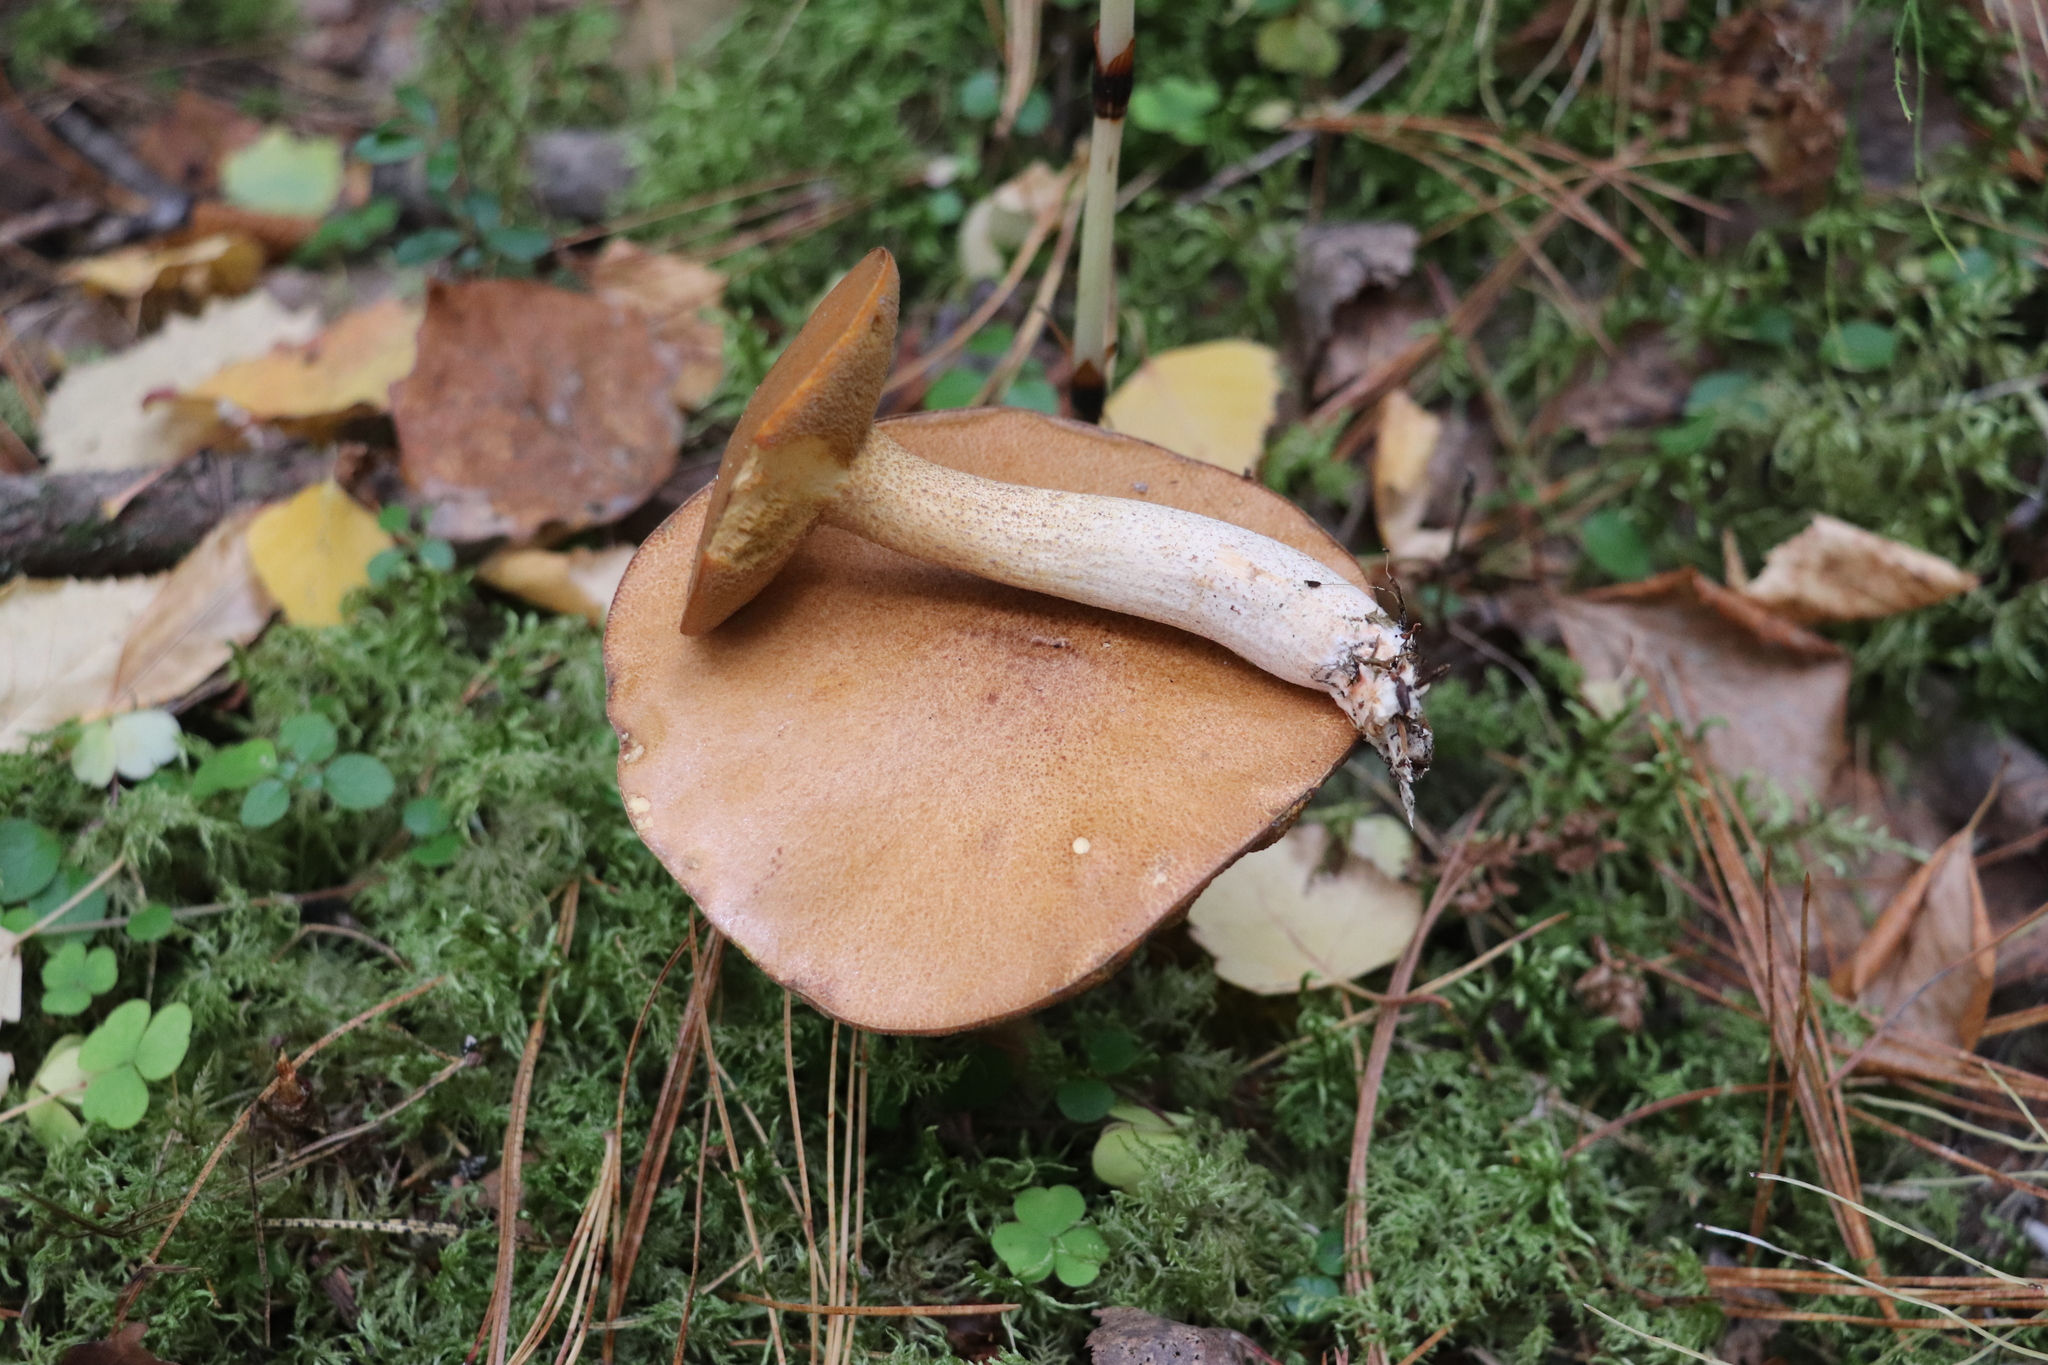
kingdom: Fungi
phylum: Basidiomycota
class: Agaricomycetes
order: Boletales
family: Suillaceae
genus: Suillus
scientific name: Suillus punctipes
